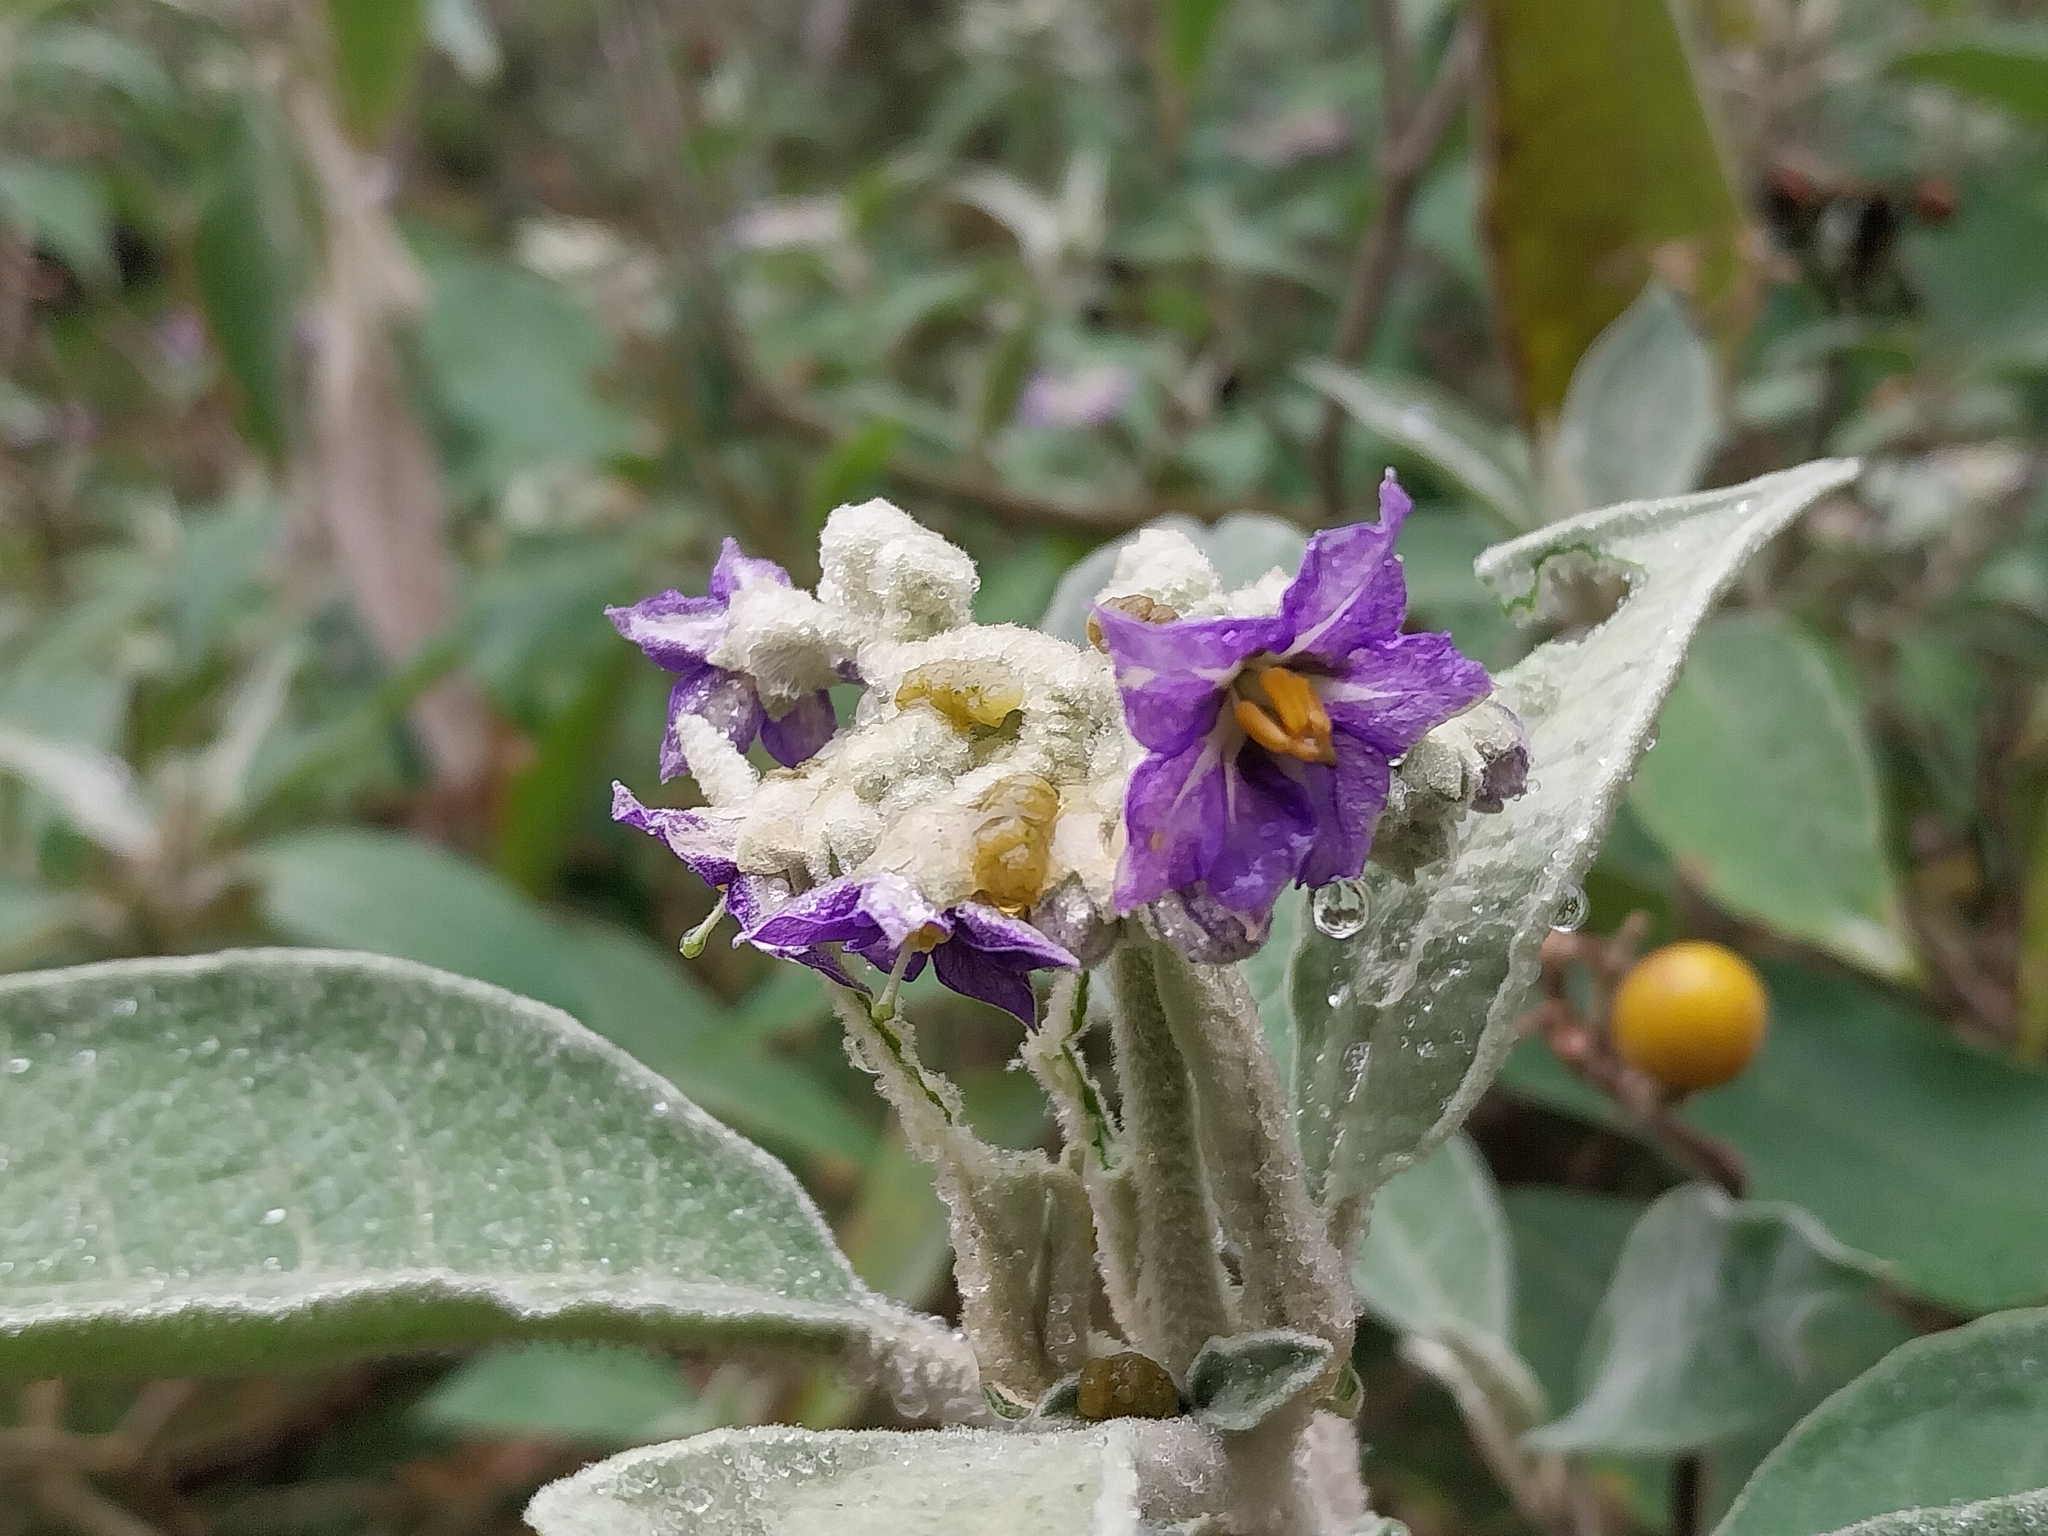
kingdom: Plantae
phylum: Tracheophyta
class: Magnoliopsida
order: Solanales
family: Solanaceae
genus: Solanum
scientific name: Solanum mauritianum
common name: Earleaf nightshade
